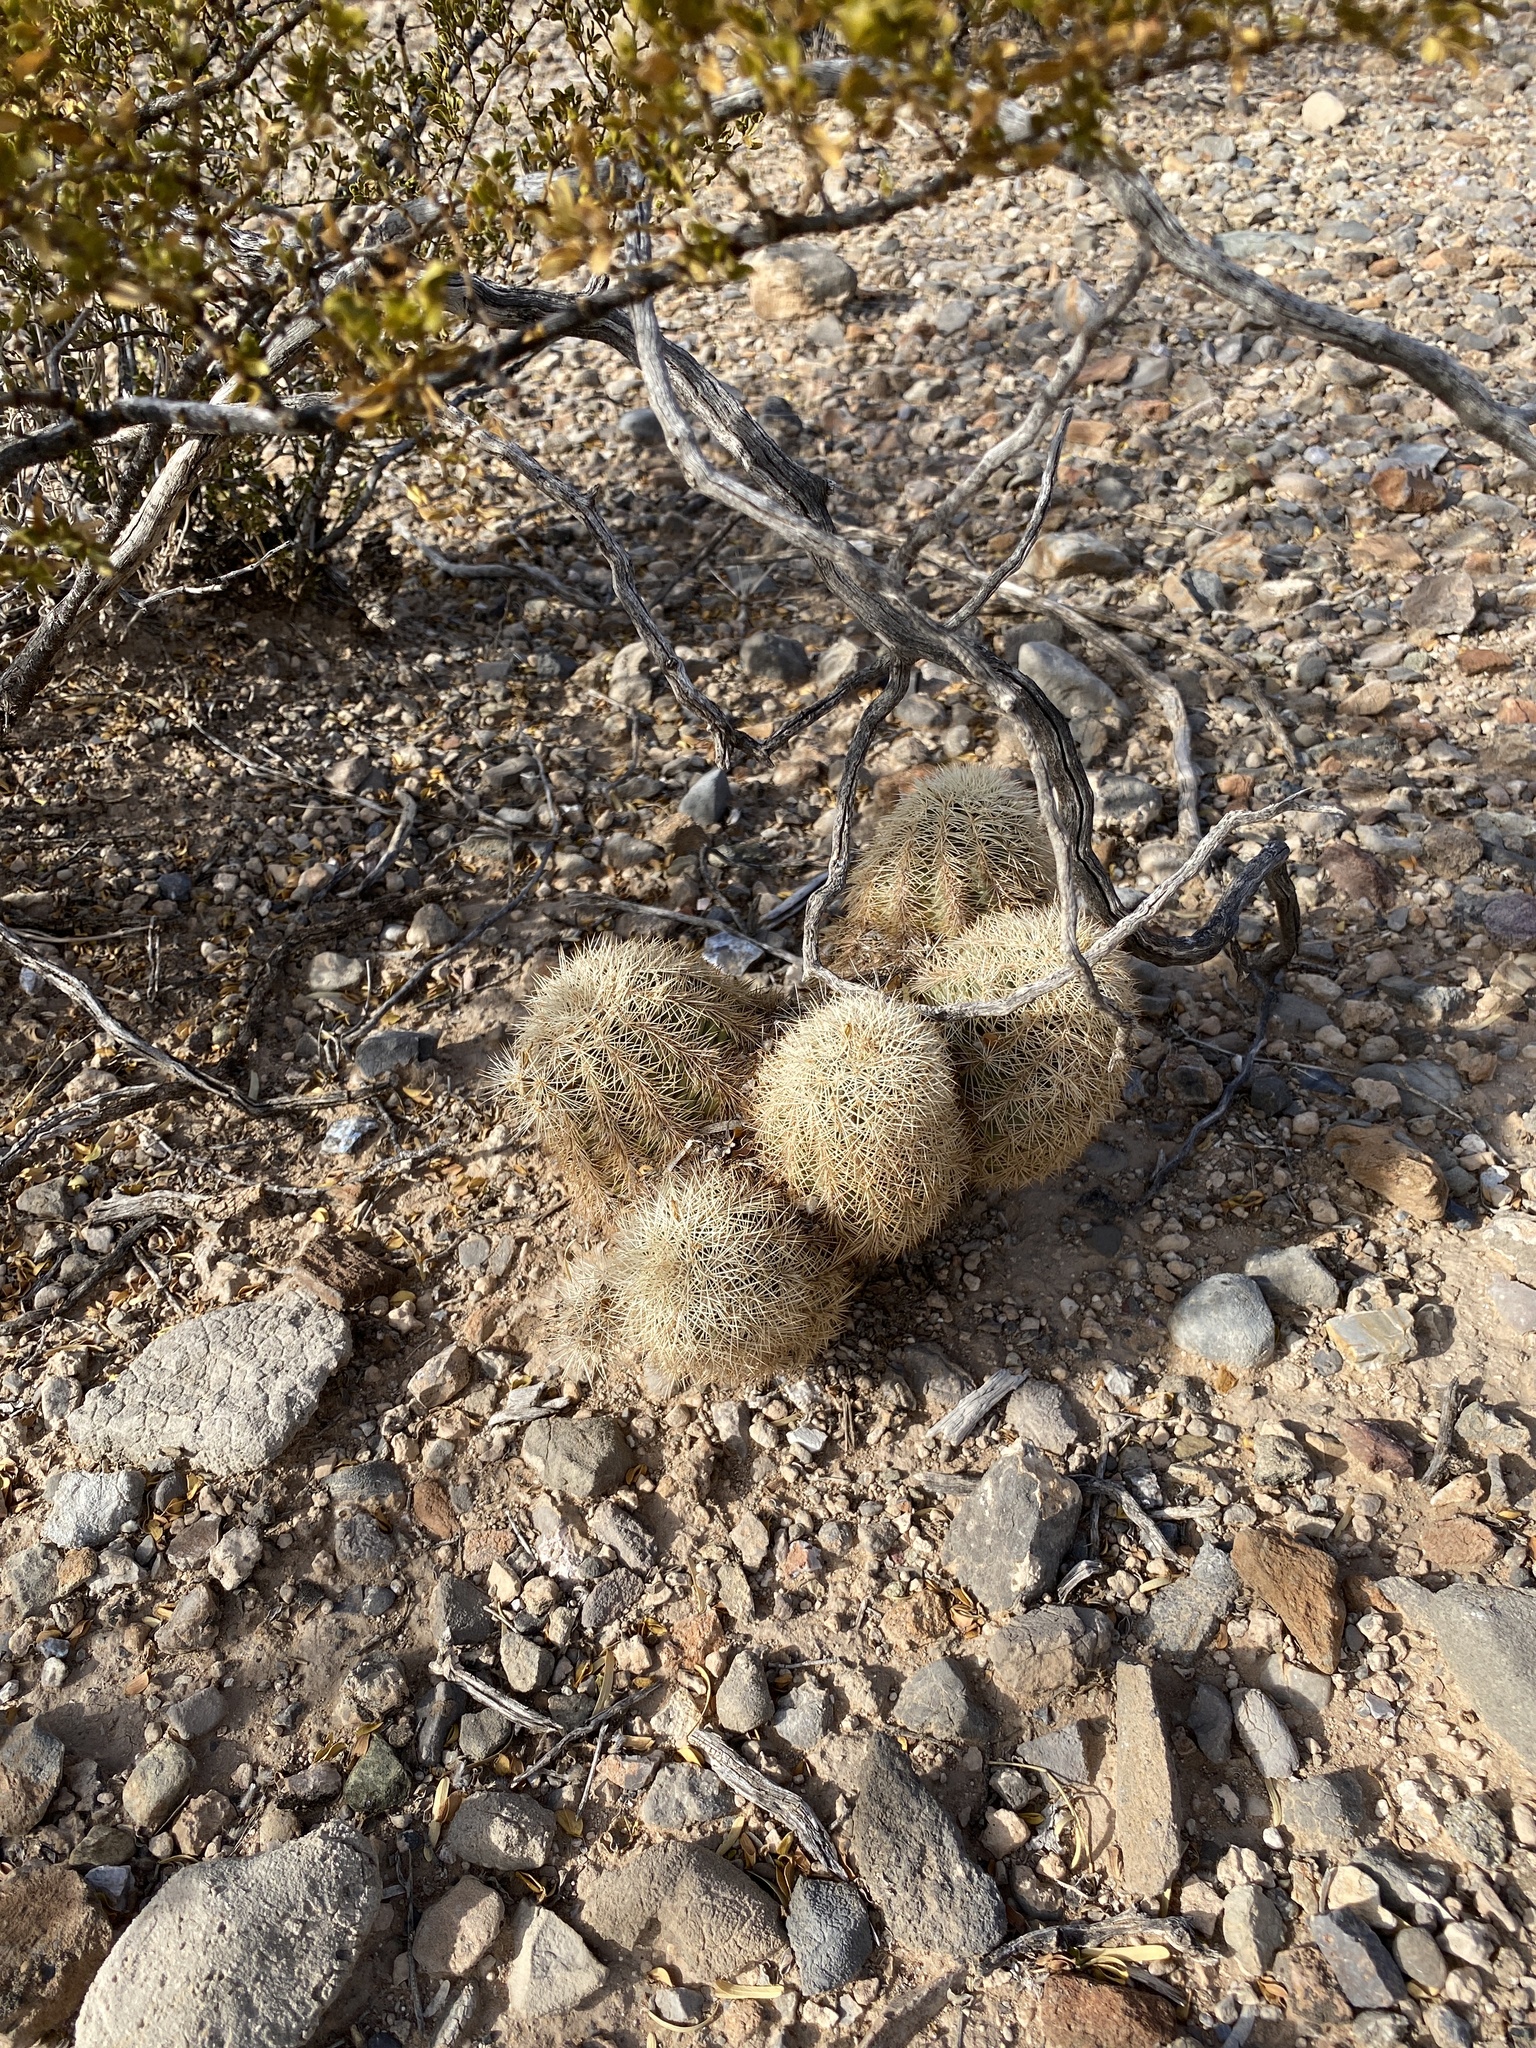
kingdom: Plantae
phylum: Tracheophyta
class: Magnoliopsida
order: Caryophyllales
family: Cactaceae
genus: Echinocereus
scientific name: Echinocereus dasyacanthus
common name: Spiny hedgehog cactus
